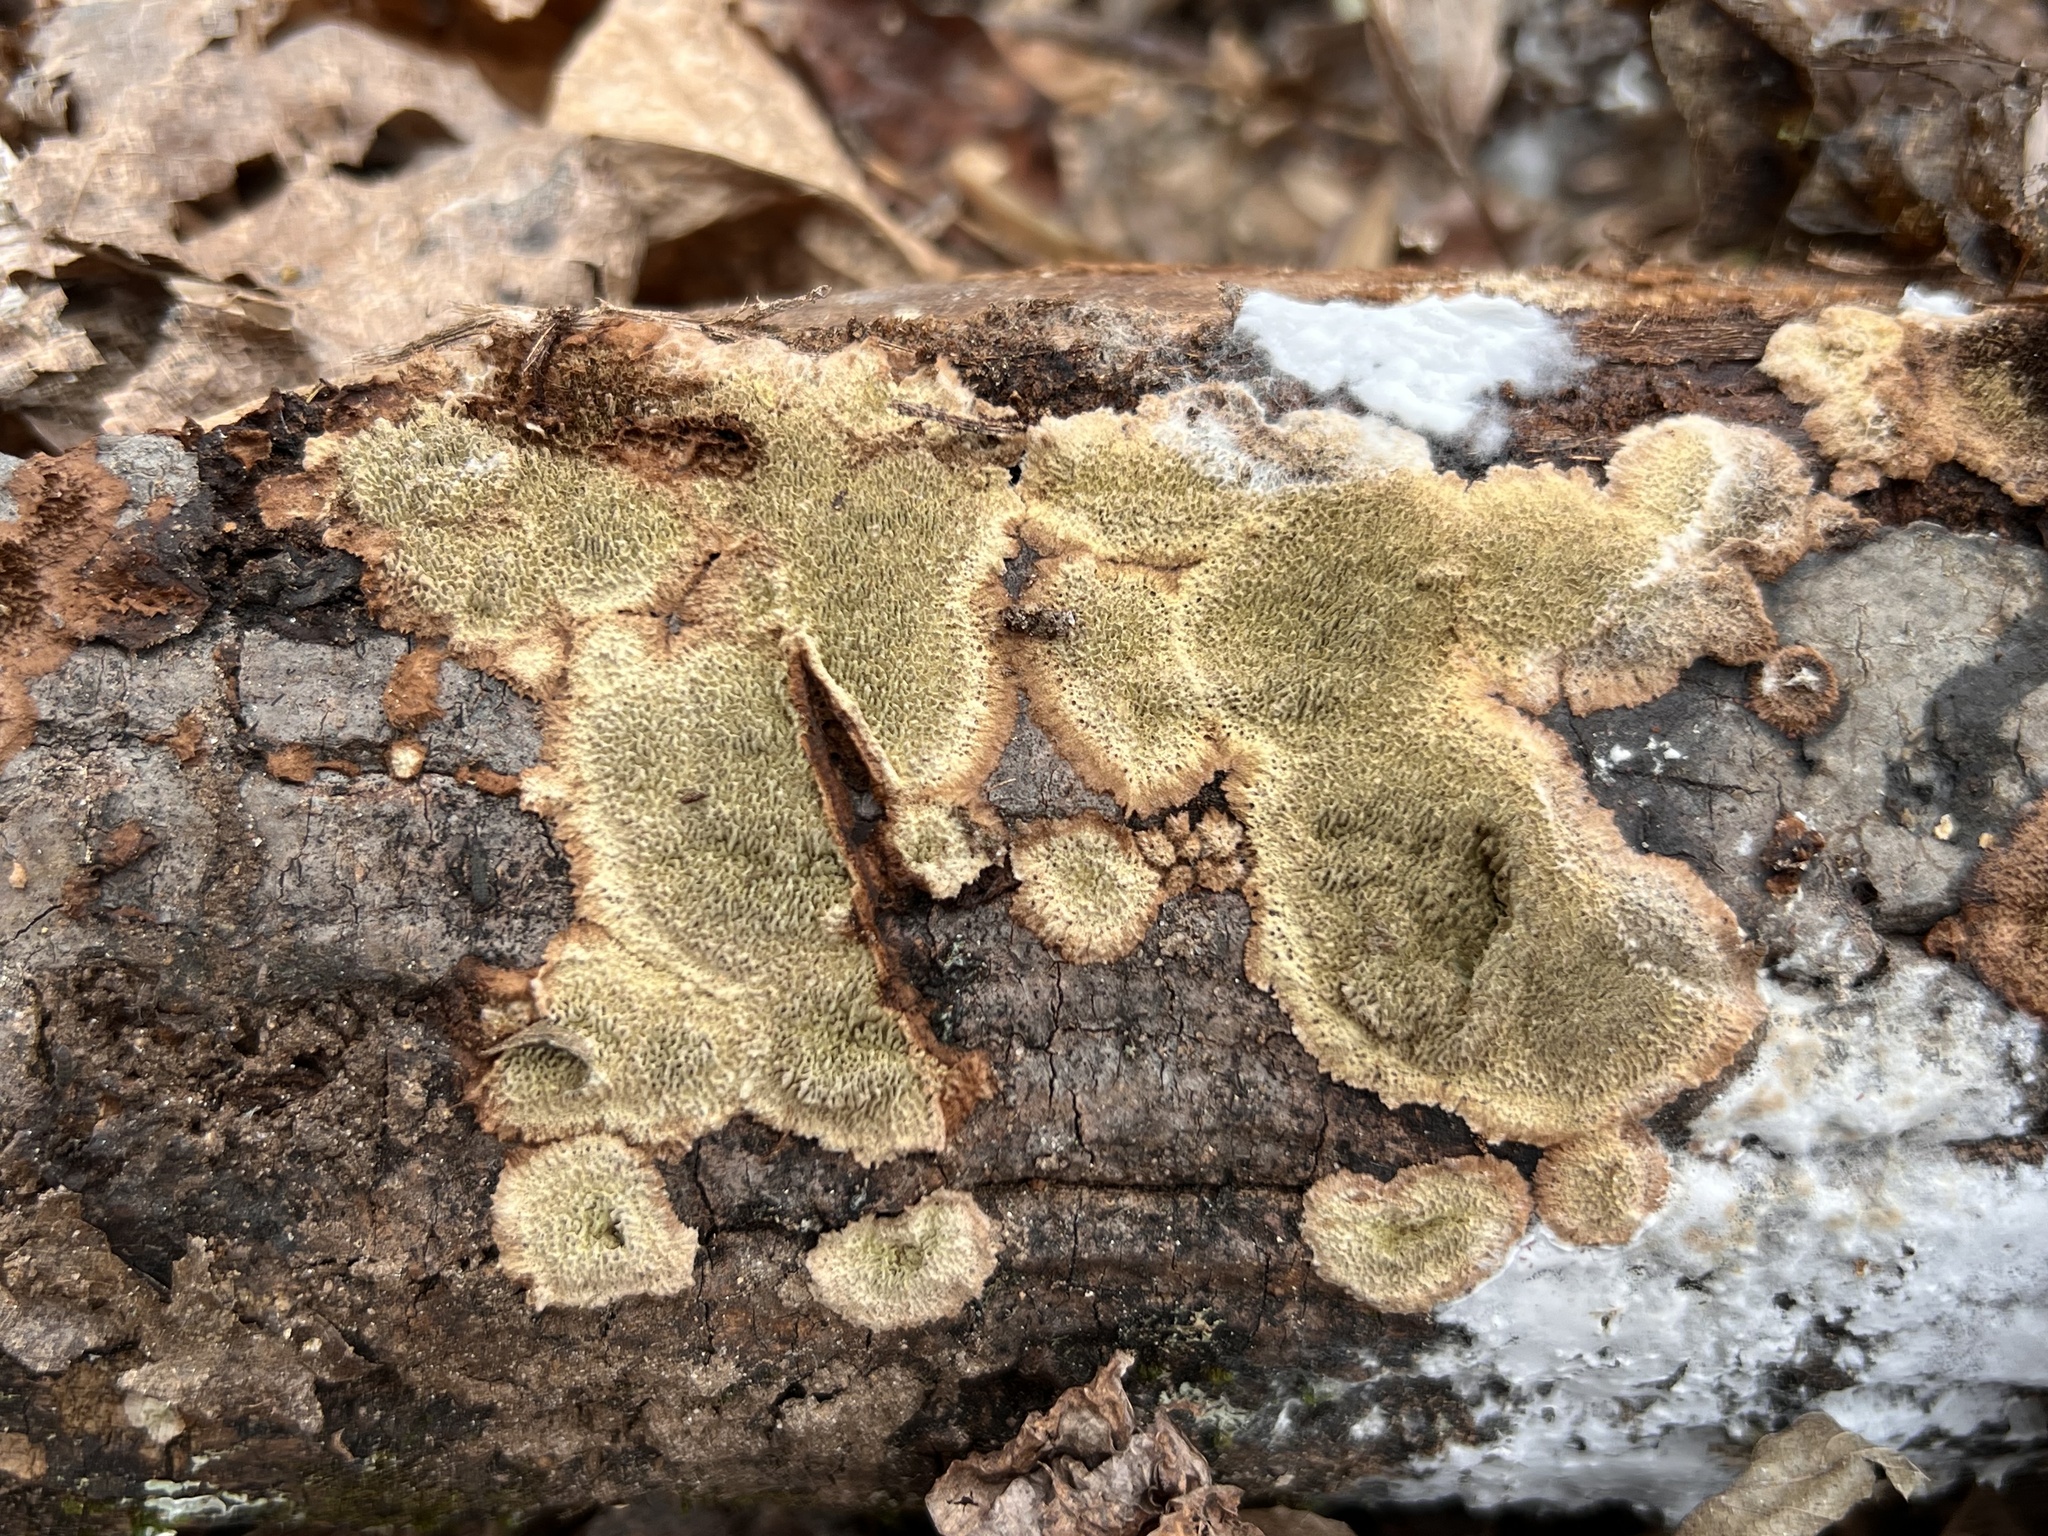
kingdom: Fungi
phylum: Basidiomycota
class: Agaricomycetes
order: Polyporales
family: Polyporaceae
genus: Dentocorticium
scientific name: Dentocorticium portoricense
